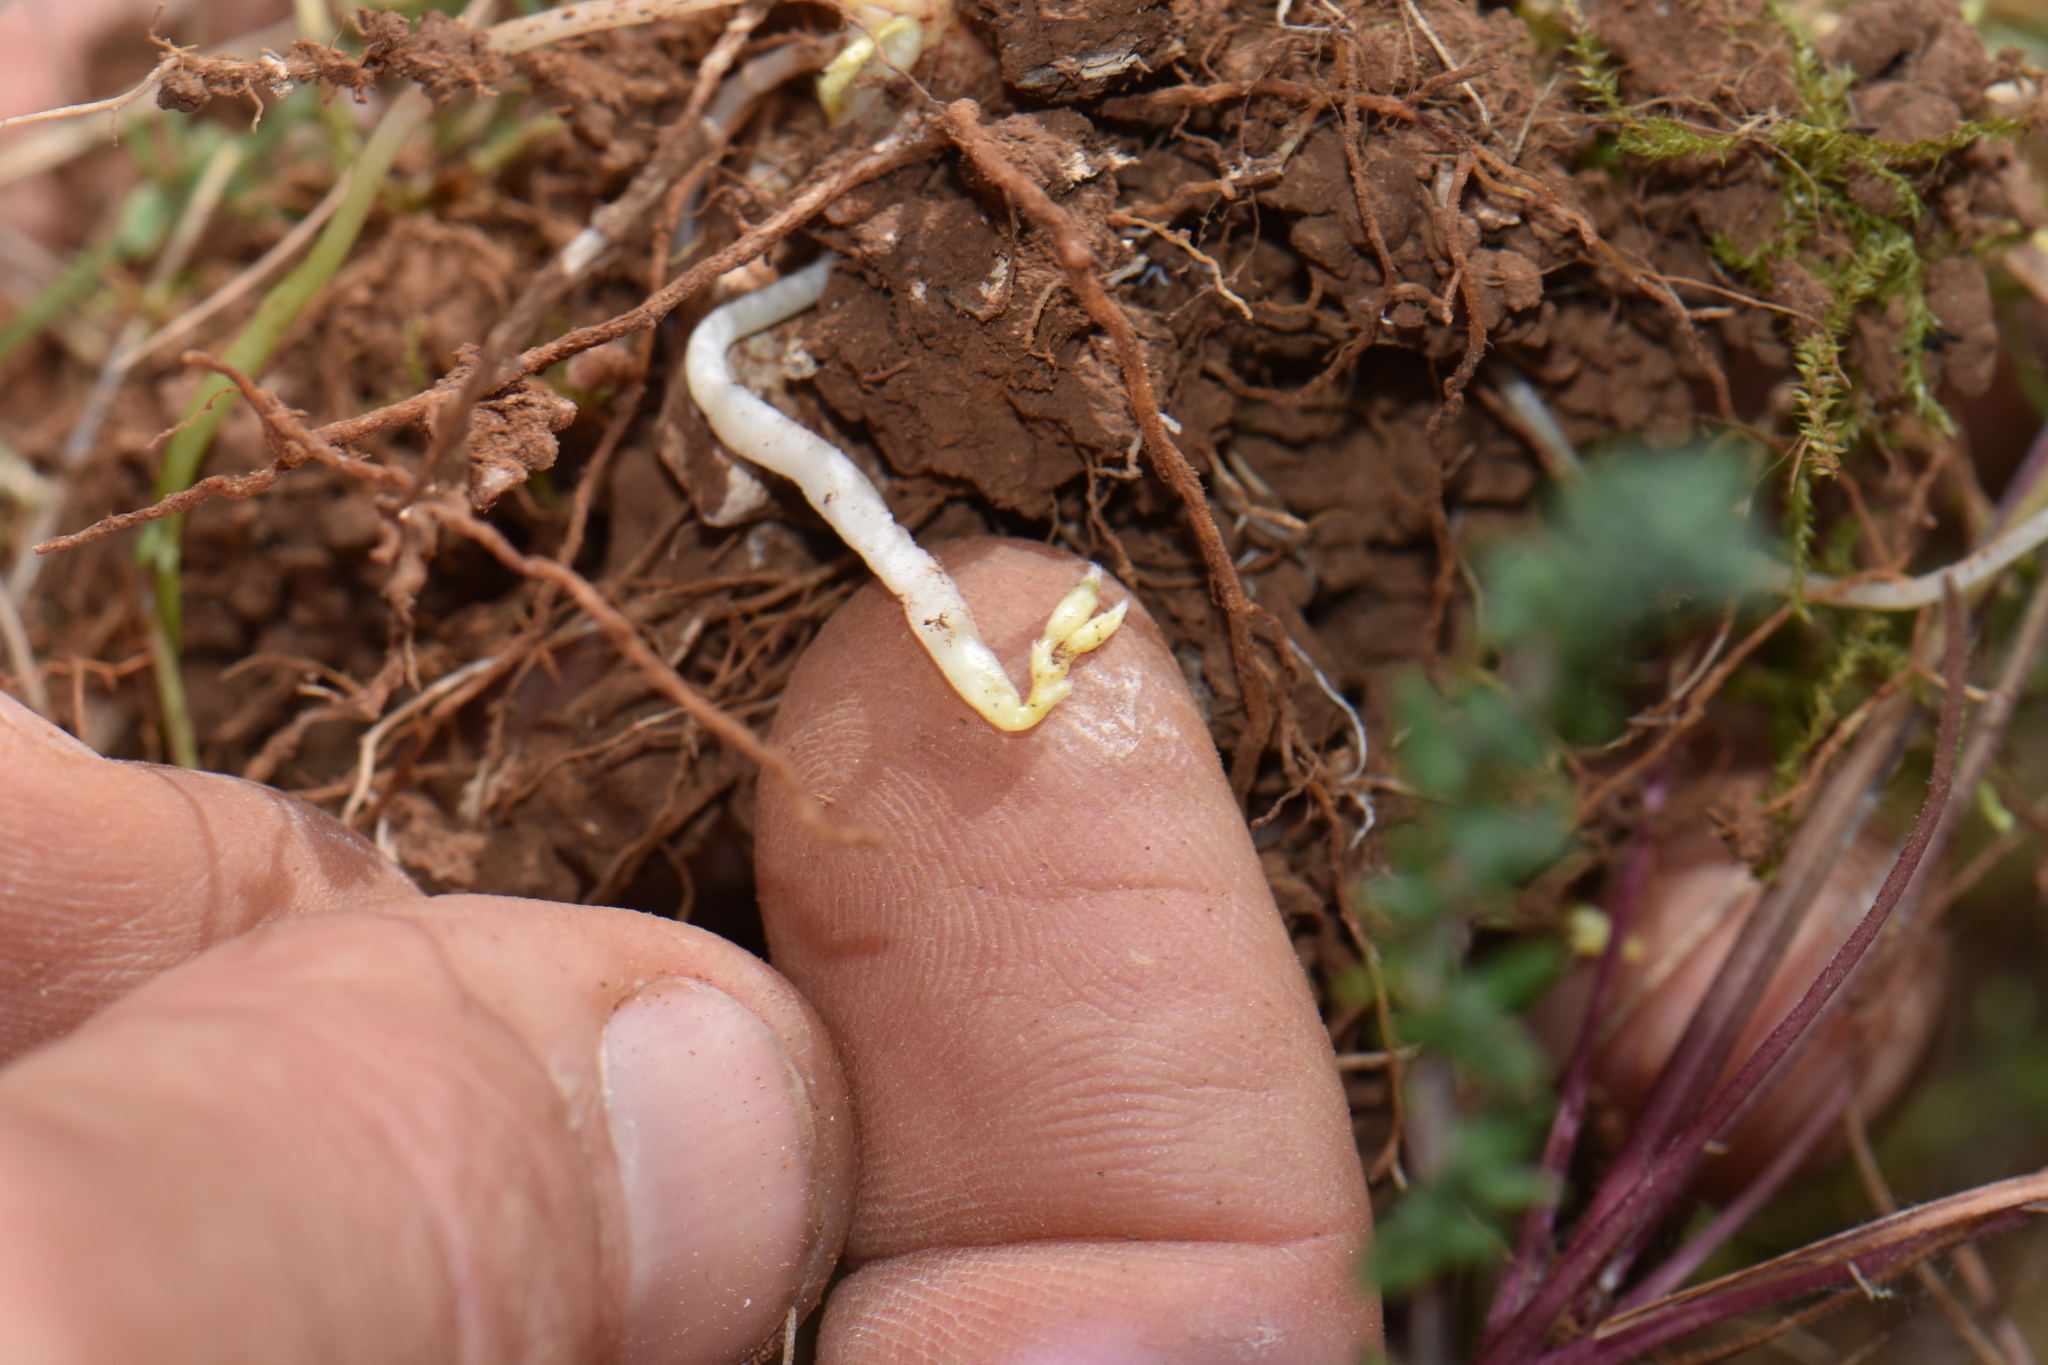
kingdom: Plantae
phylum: Tracheophyta
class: Magnoliopsida
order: Fabales
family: Fabaceae
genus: Vicia
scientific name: Vicia sativa
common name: Garden vetch
